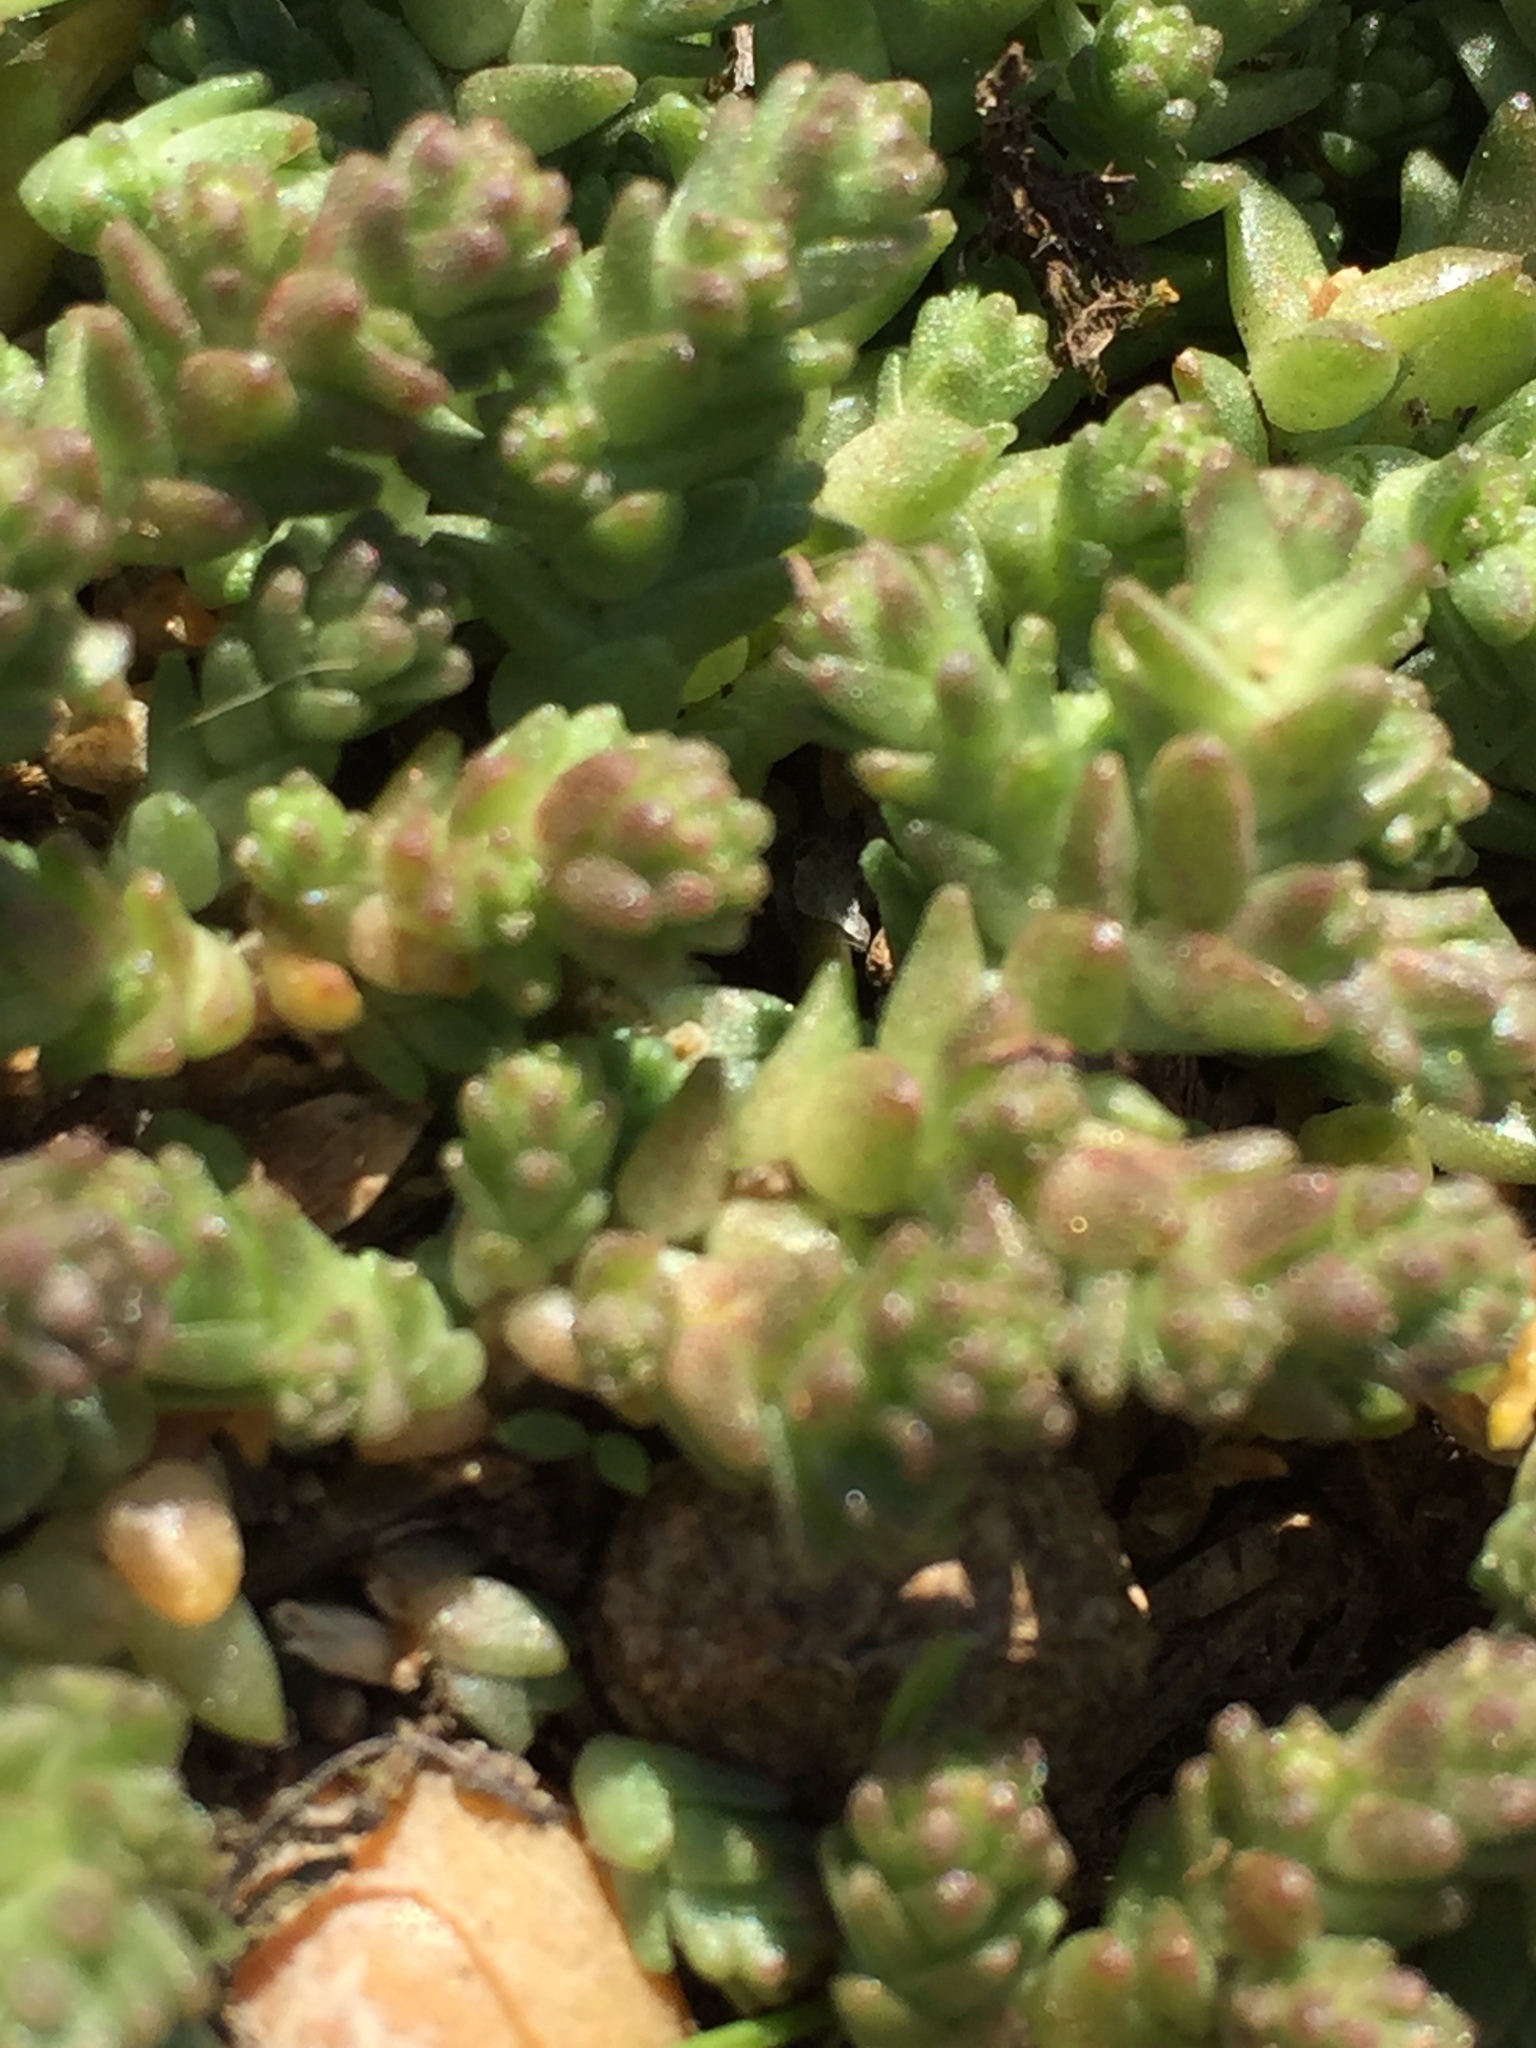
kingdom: Plantae
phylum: Tracheophyta
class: Magnoliopsida
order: Saxifragales
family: Crassulaceae
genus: Sedum
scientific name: Sedum acre
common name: Biting stonecrop
